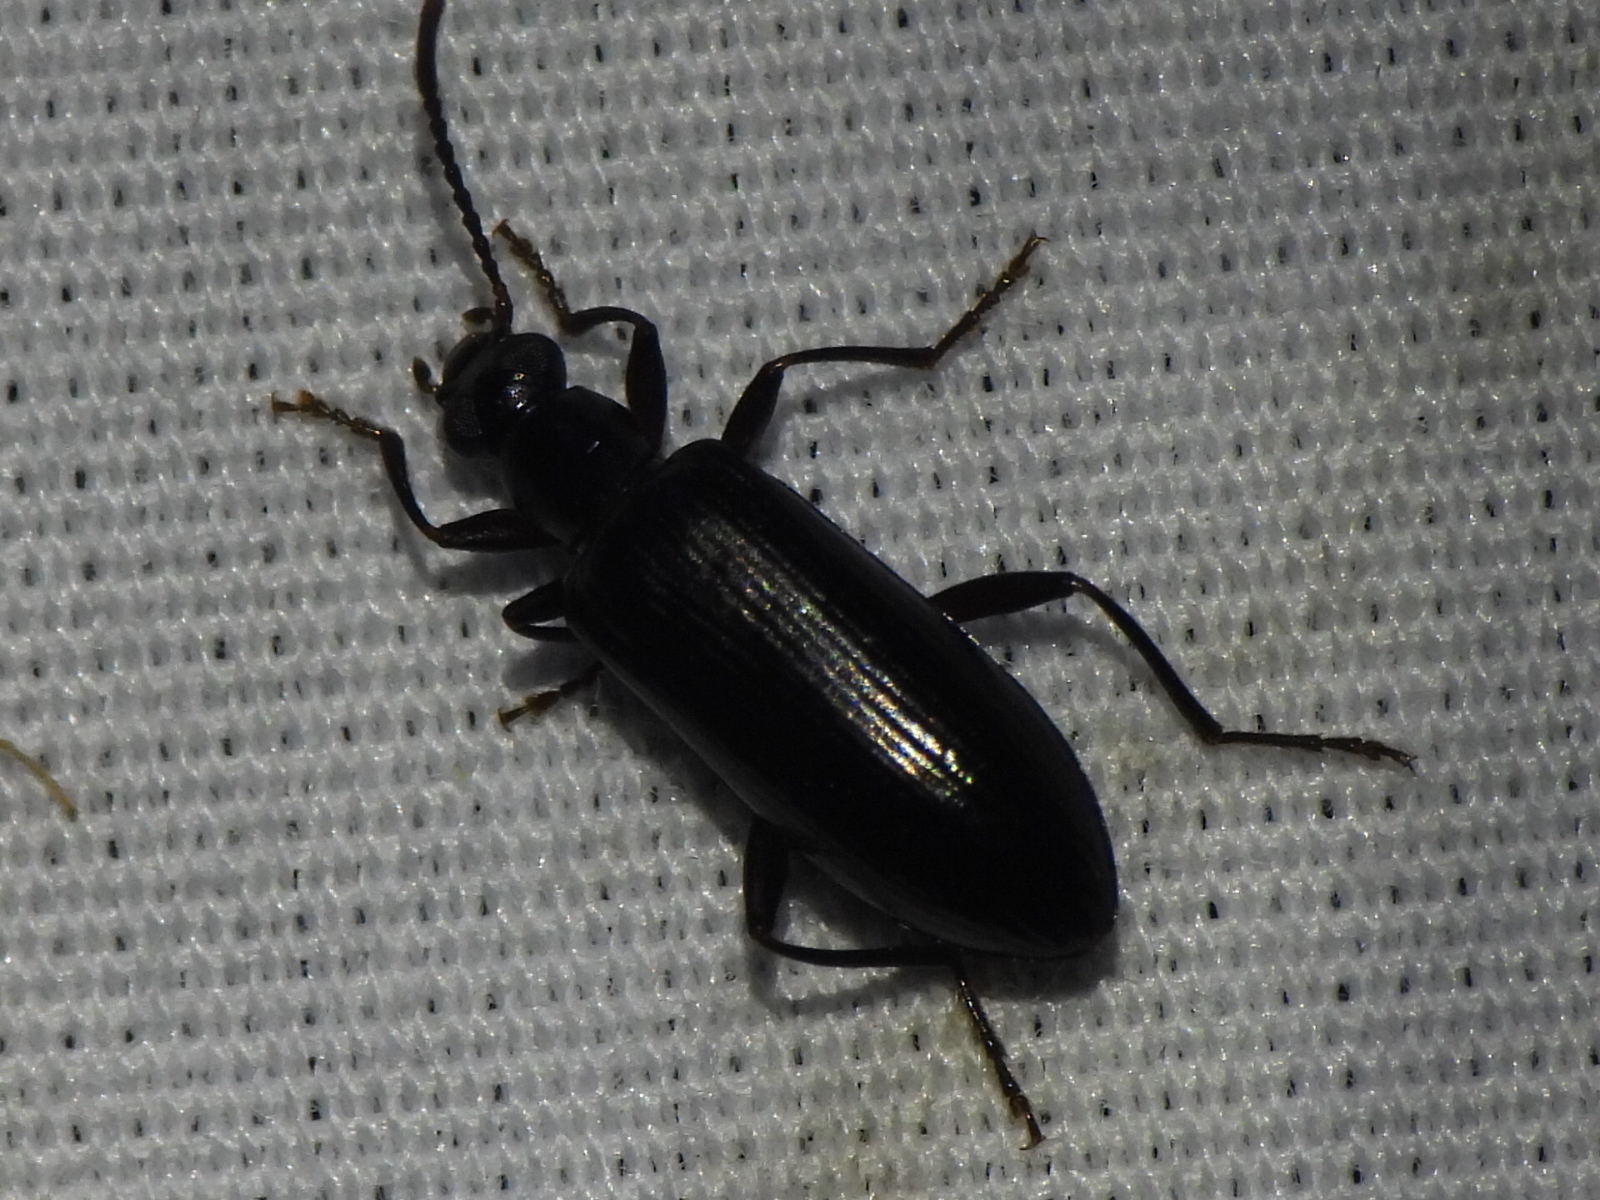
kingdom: Animalia
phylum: Arthropoda
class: Insecta
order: Coleoptera
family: Tenebrionidae
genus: Statira
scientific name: Statira erina
